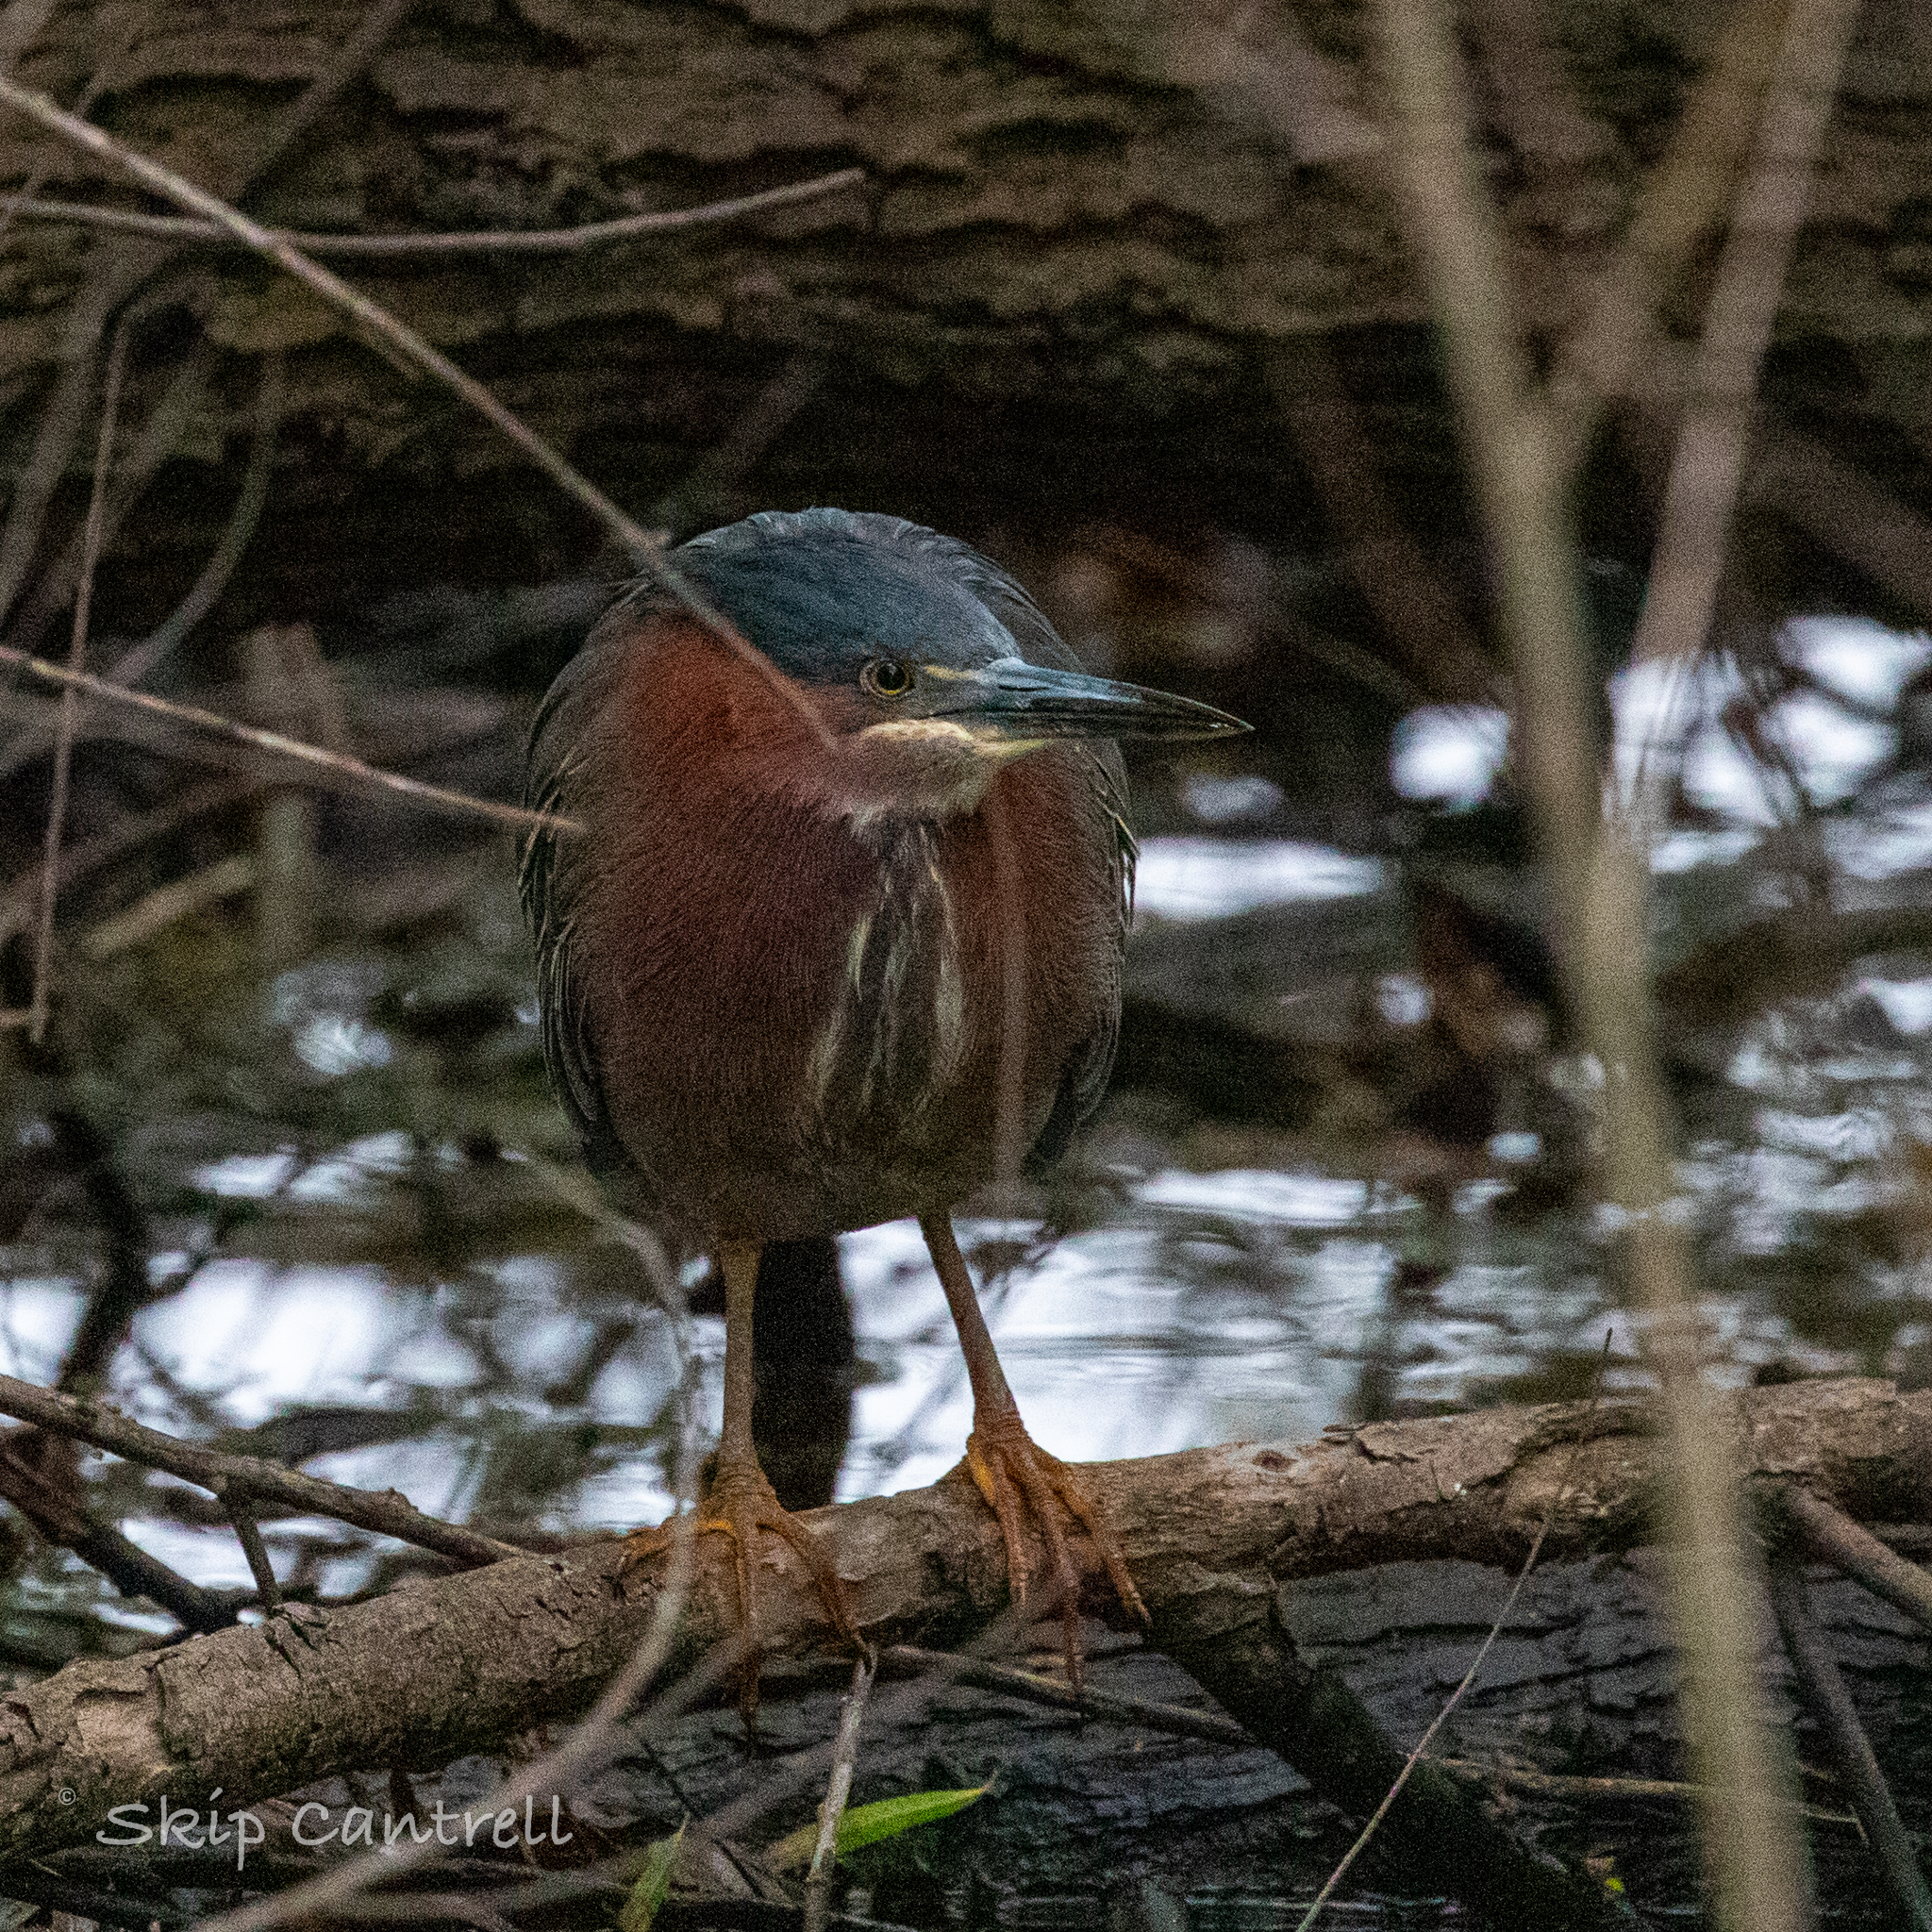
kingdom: Animalia
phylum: Chordata
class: Aves
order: Pelecaniformes
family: Ardeidae
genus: Butorides
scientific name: Butorides virescens
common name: Green heron
